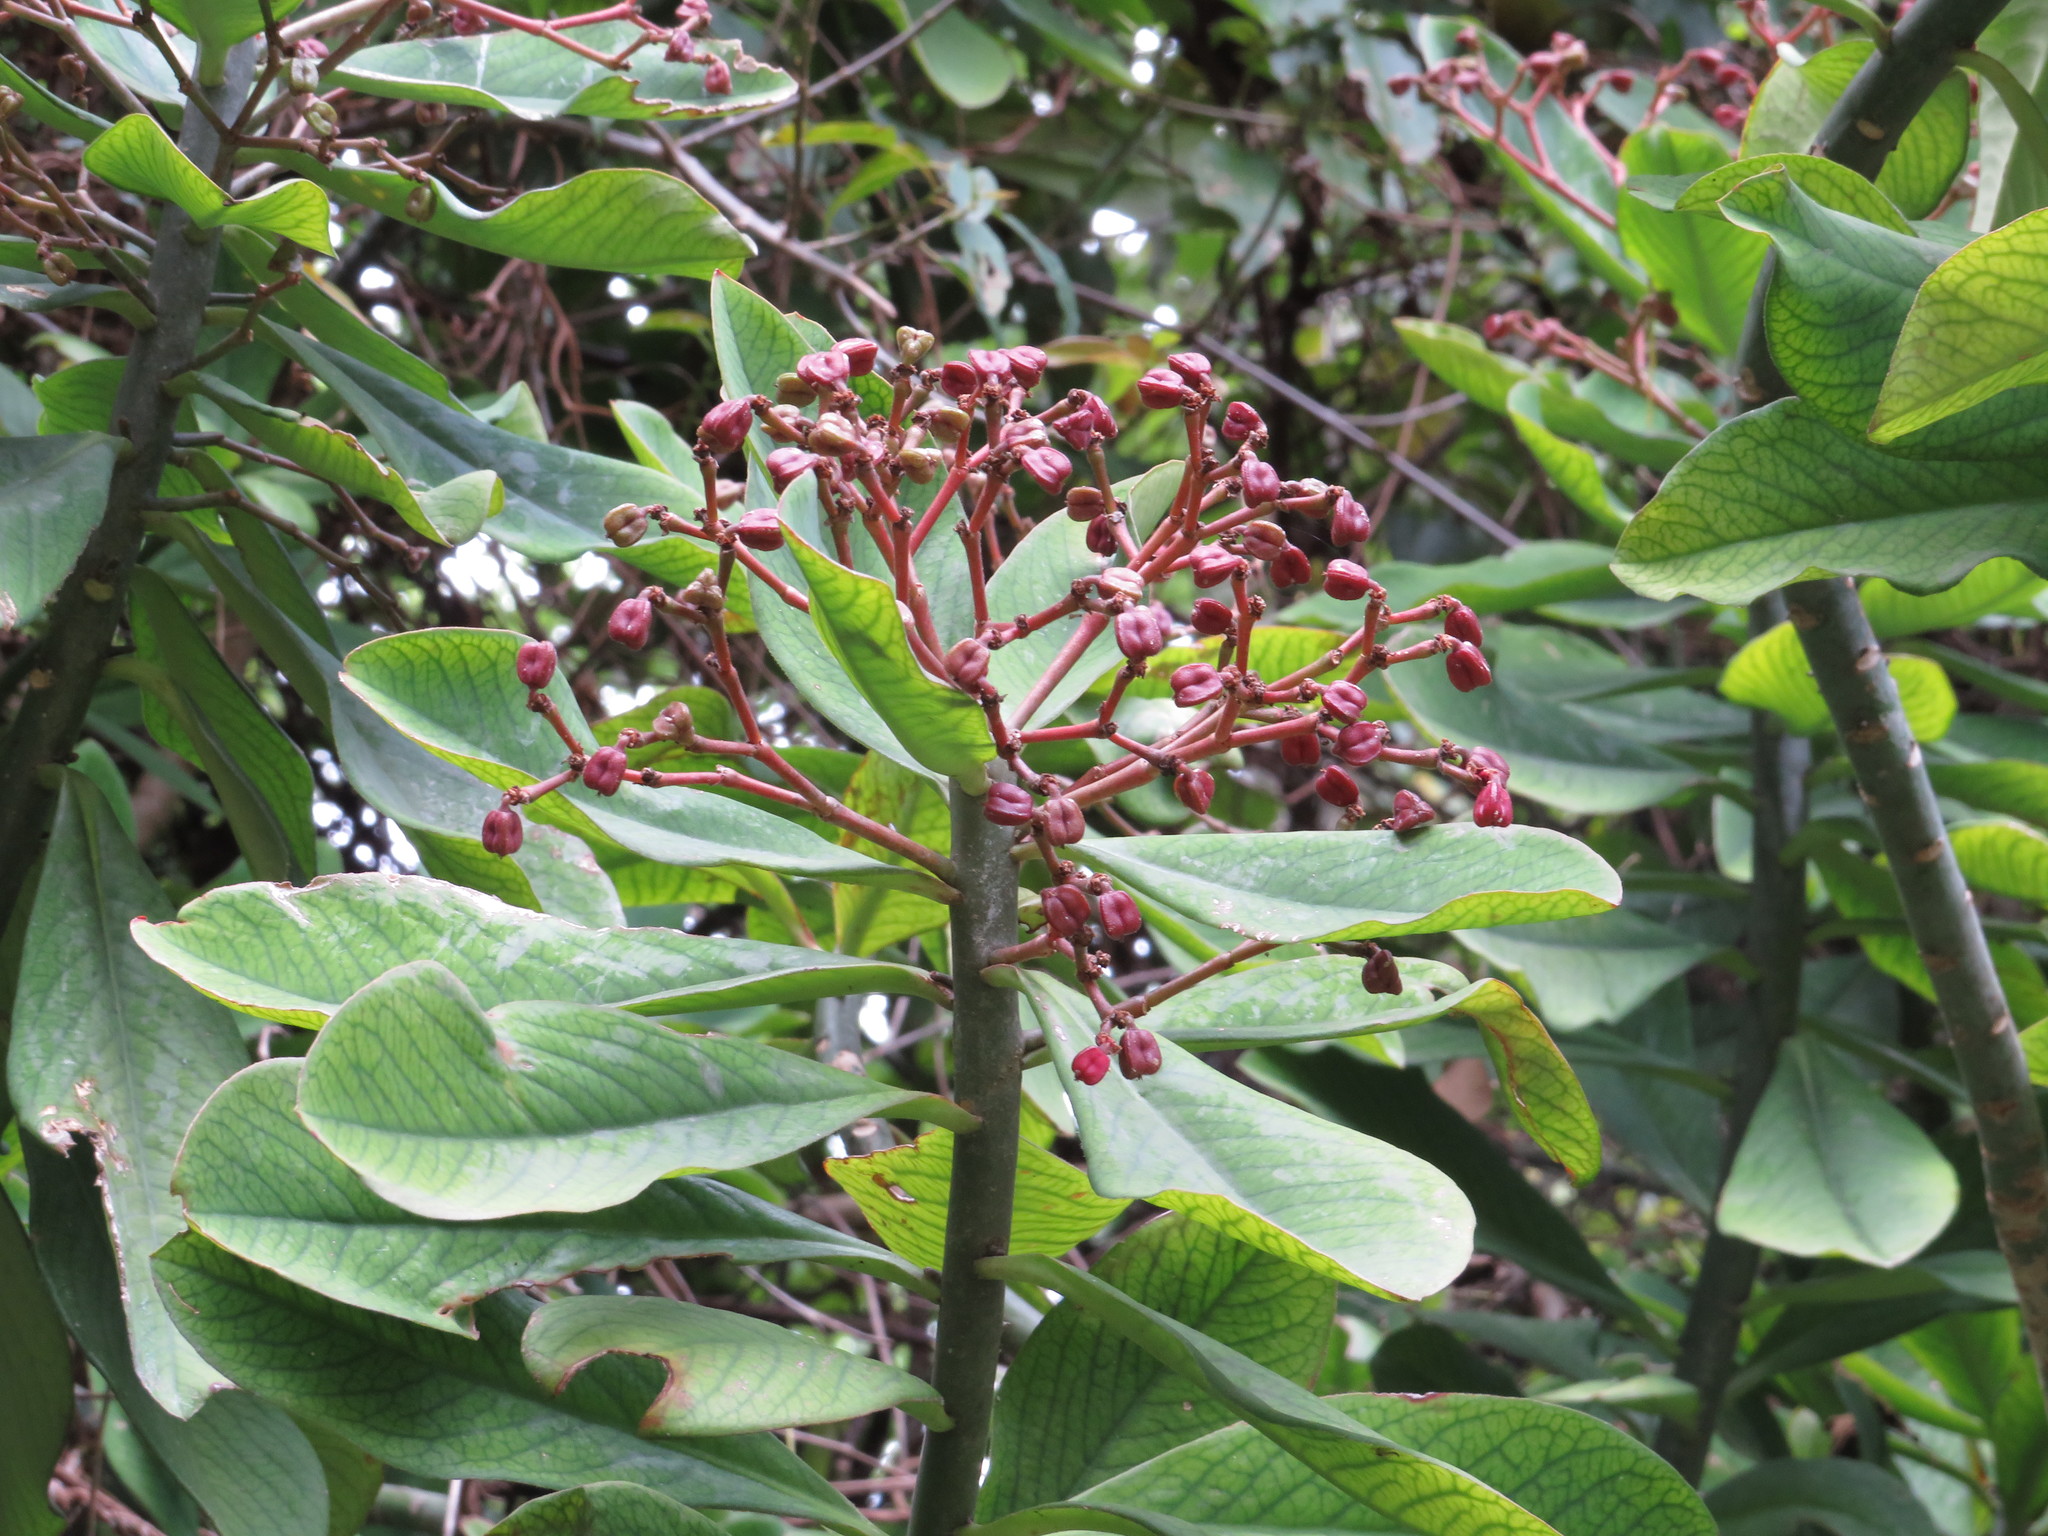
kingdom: Plantae
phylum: Tracheophyta
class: Magnoliopsida
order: Malpighiales
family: Euphorbiaceae
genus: Euphorbia
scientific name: Euphorbia umbellata
